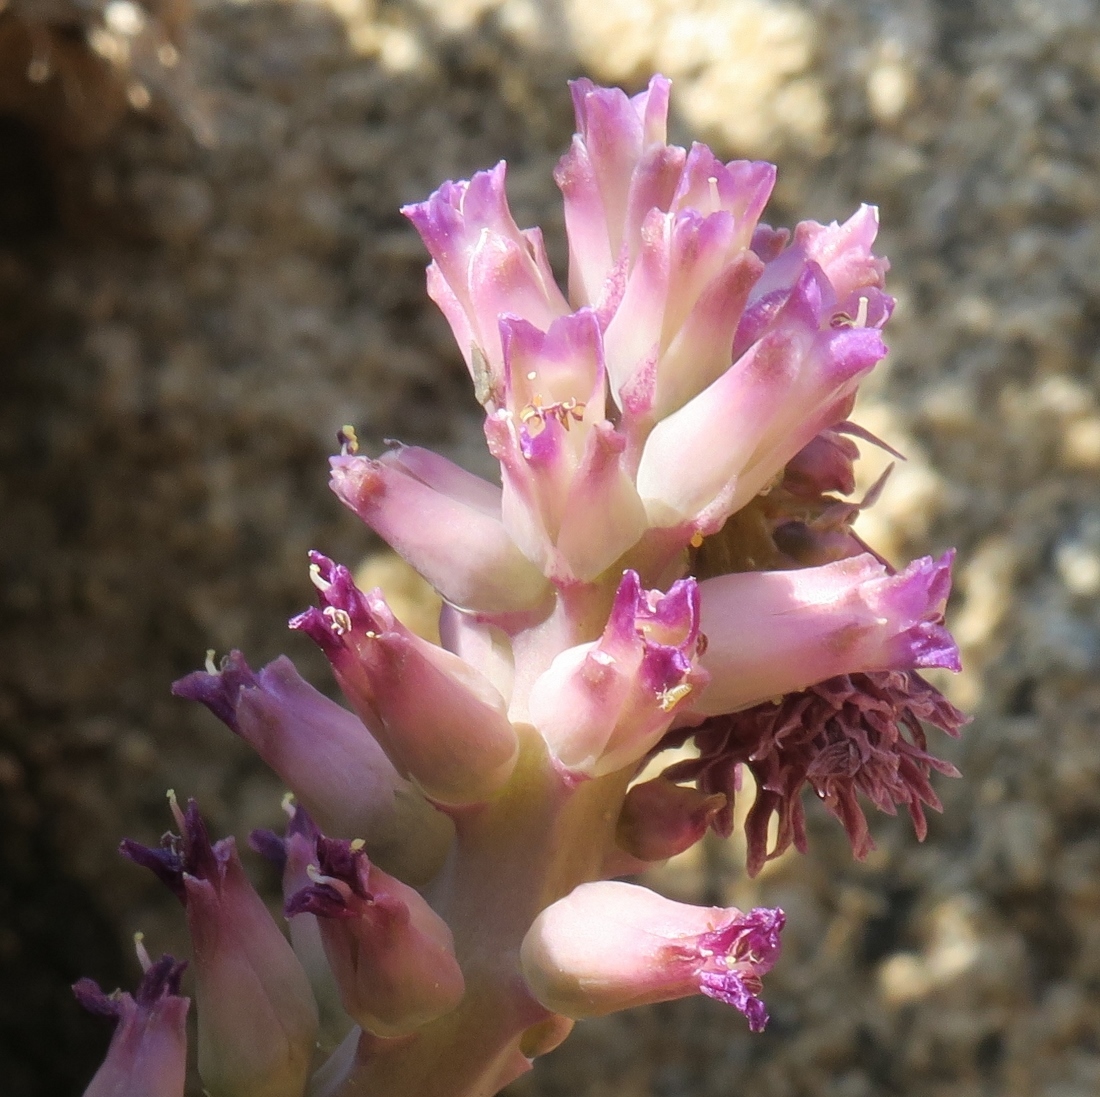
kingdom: Plantae
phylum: Tracheophyta
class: Liliopsida
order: Asparagales
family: Asparagaceae
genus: Lachenalia
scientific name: Lachenalia carnosa
